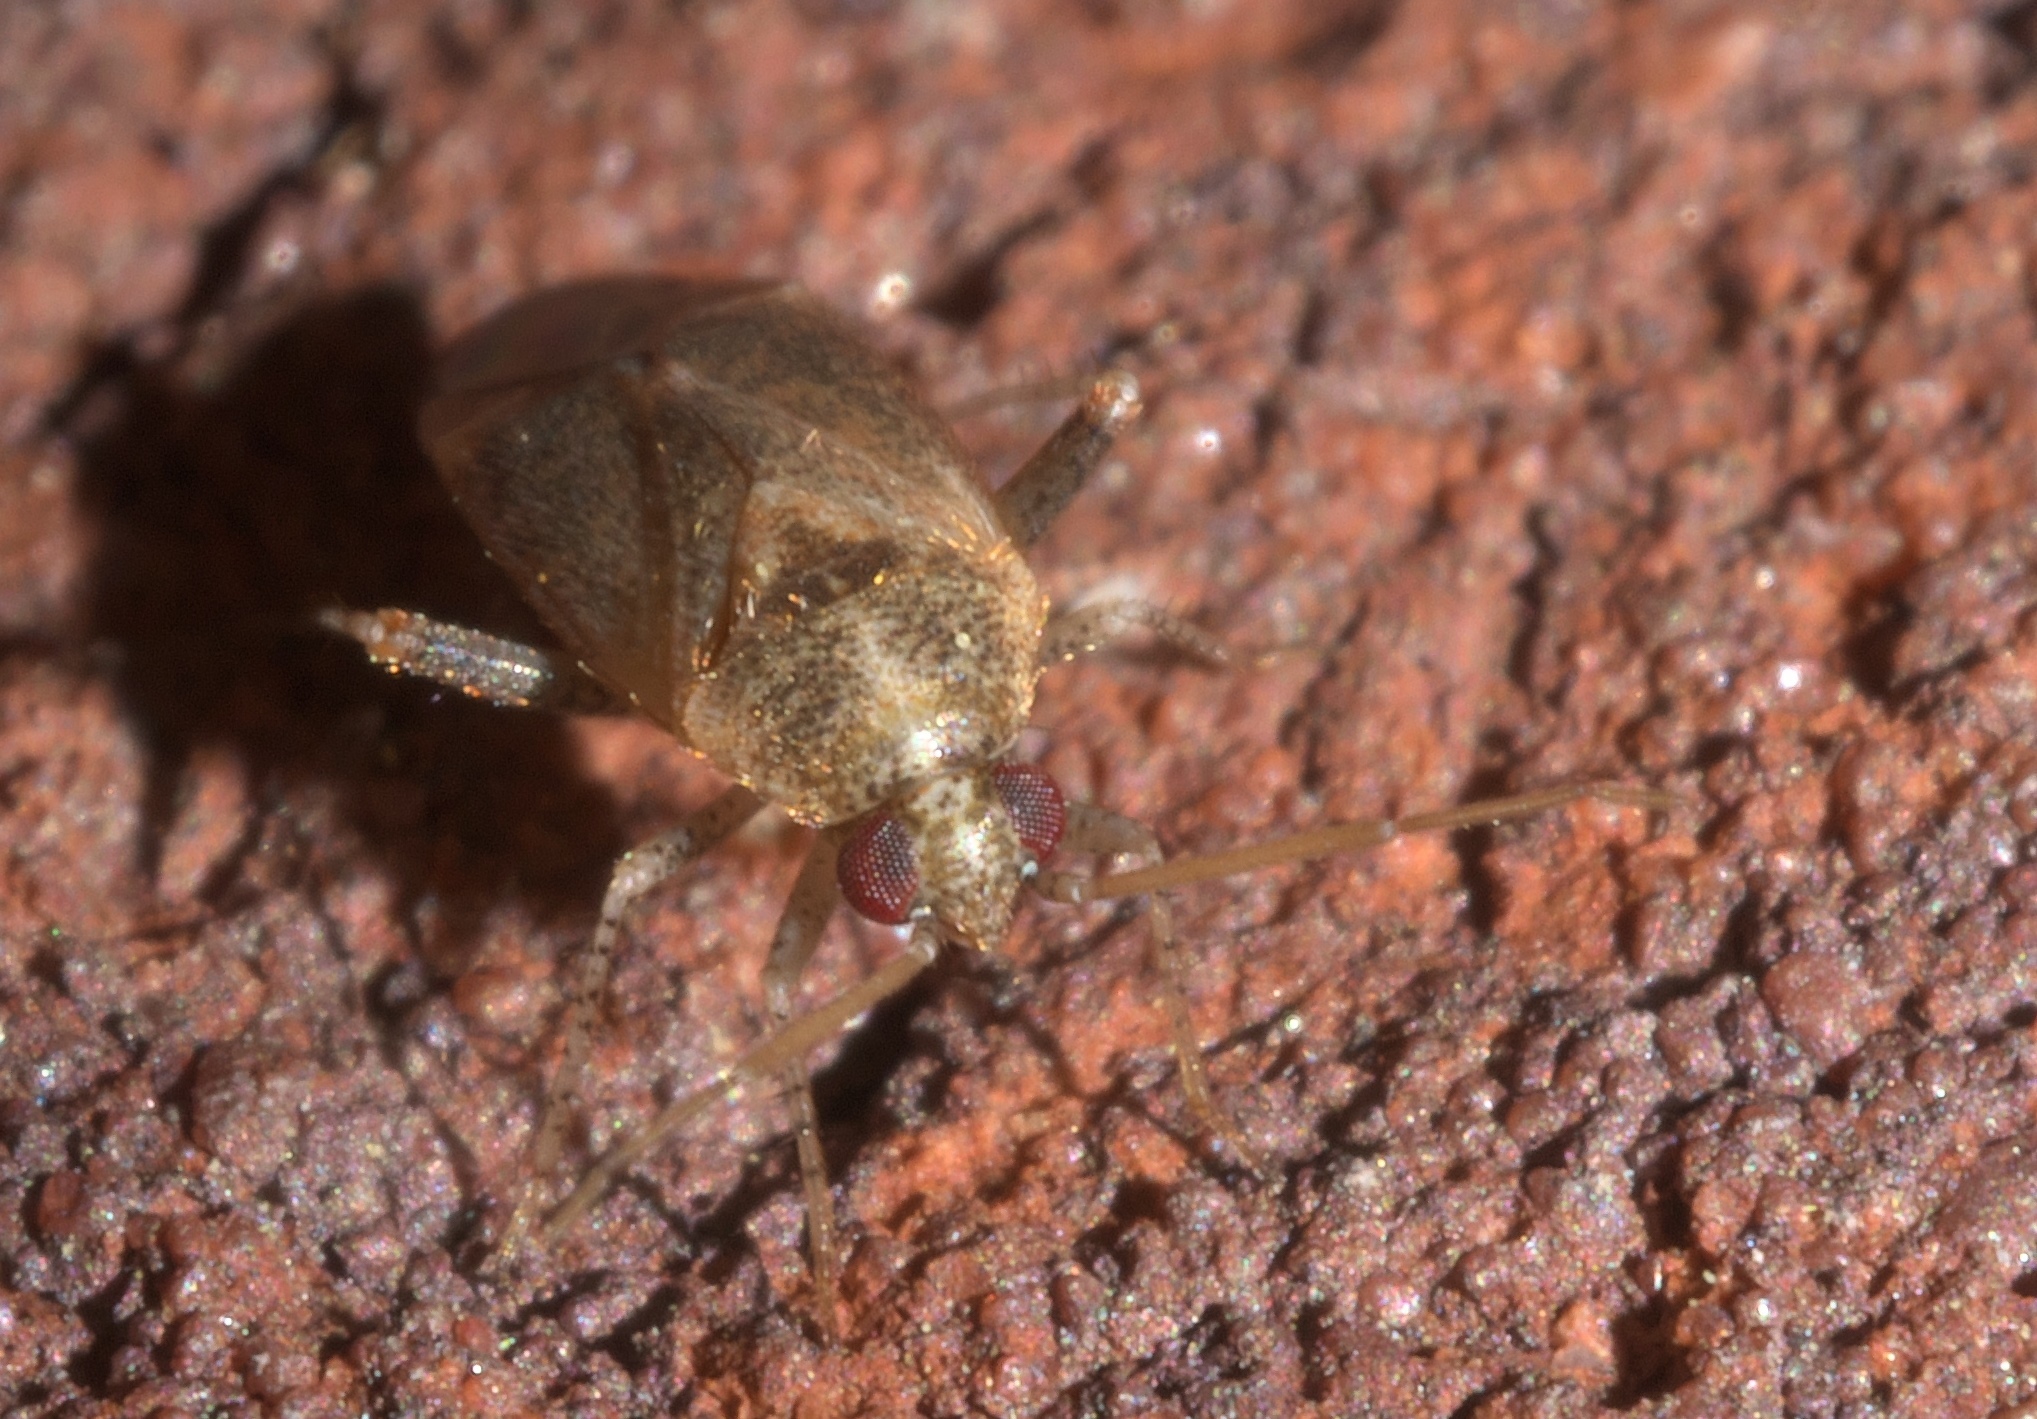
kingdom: Animalia
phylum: Arthropoda
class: Insecta
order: Hemiptera
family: Miridae
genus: Hamatophylus
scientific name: Hamatophylus guttulosus
